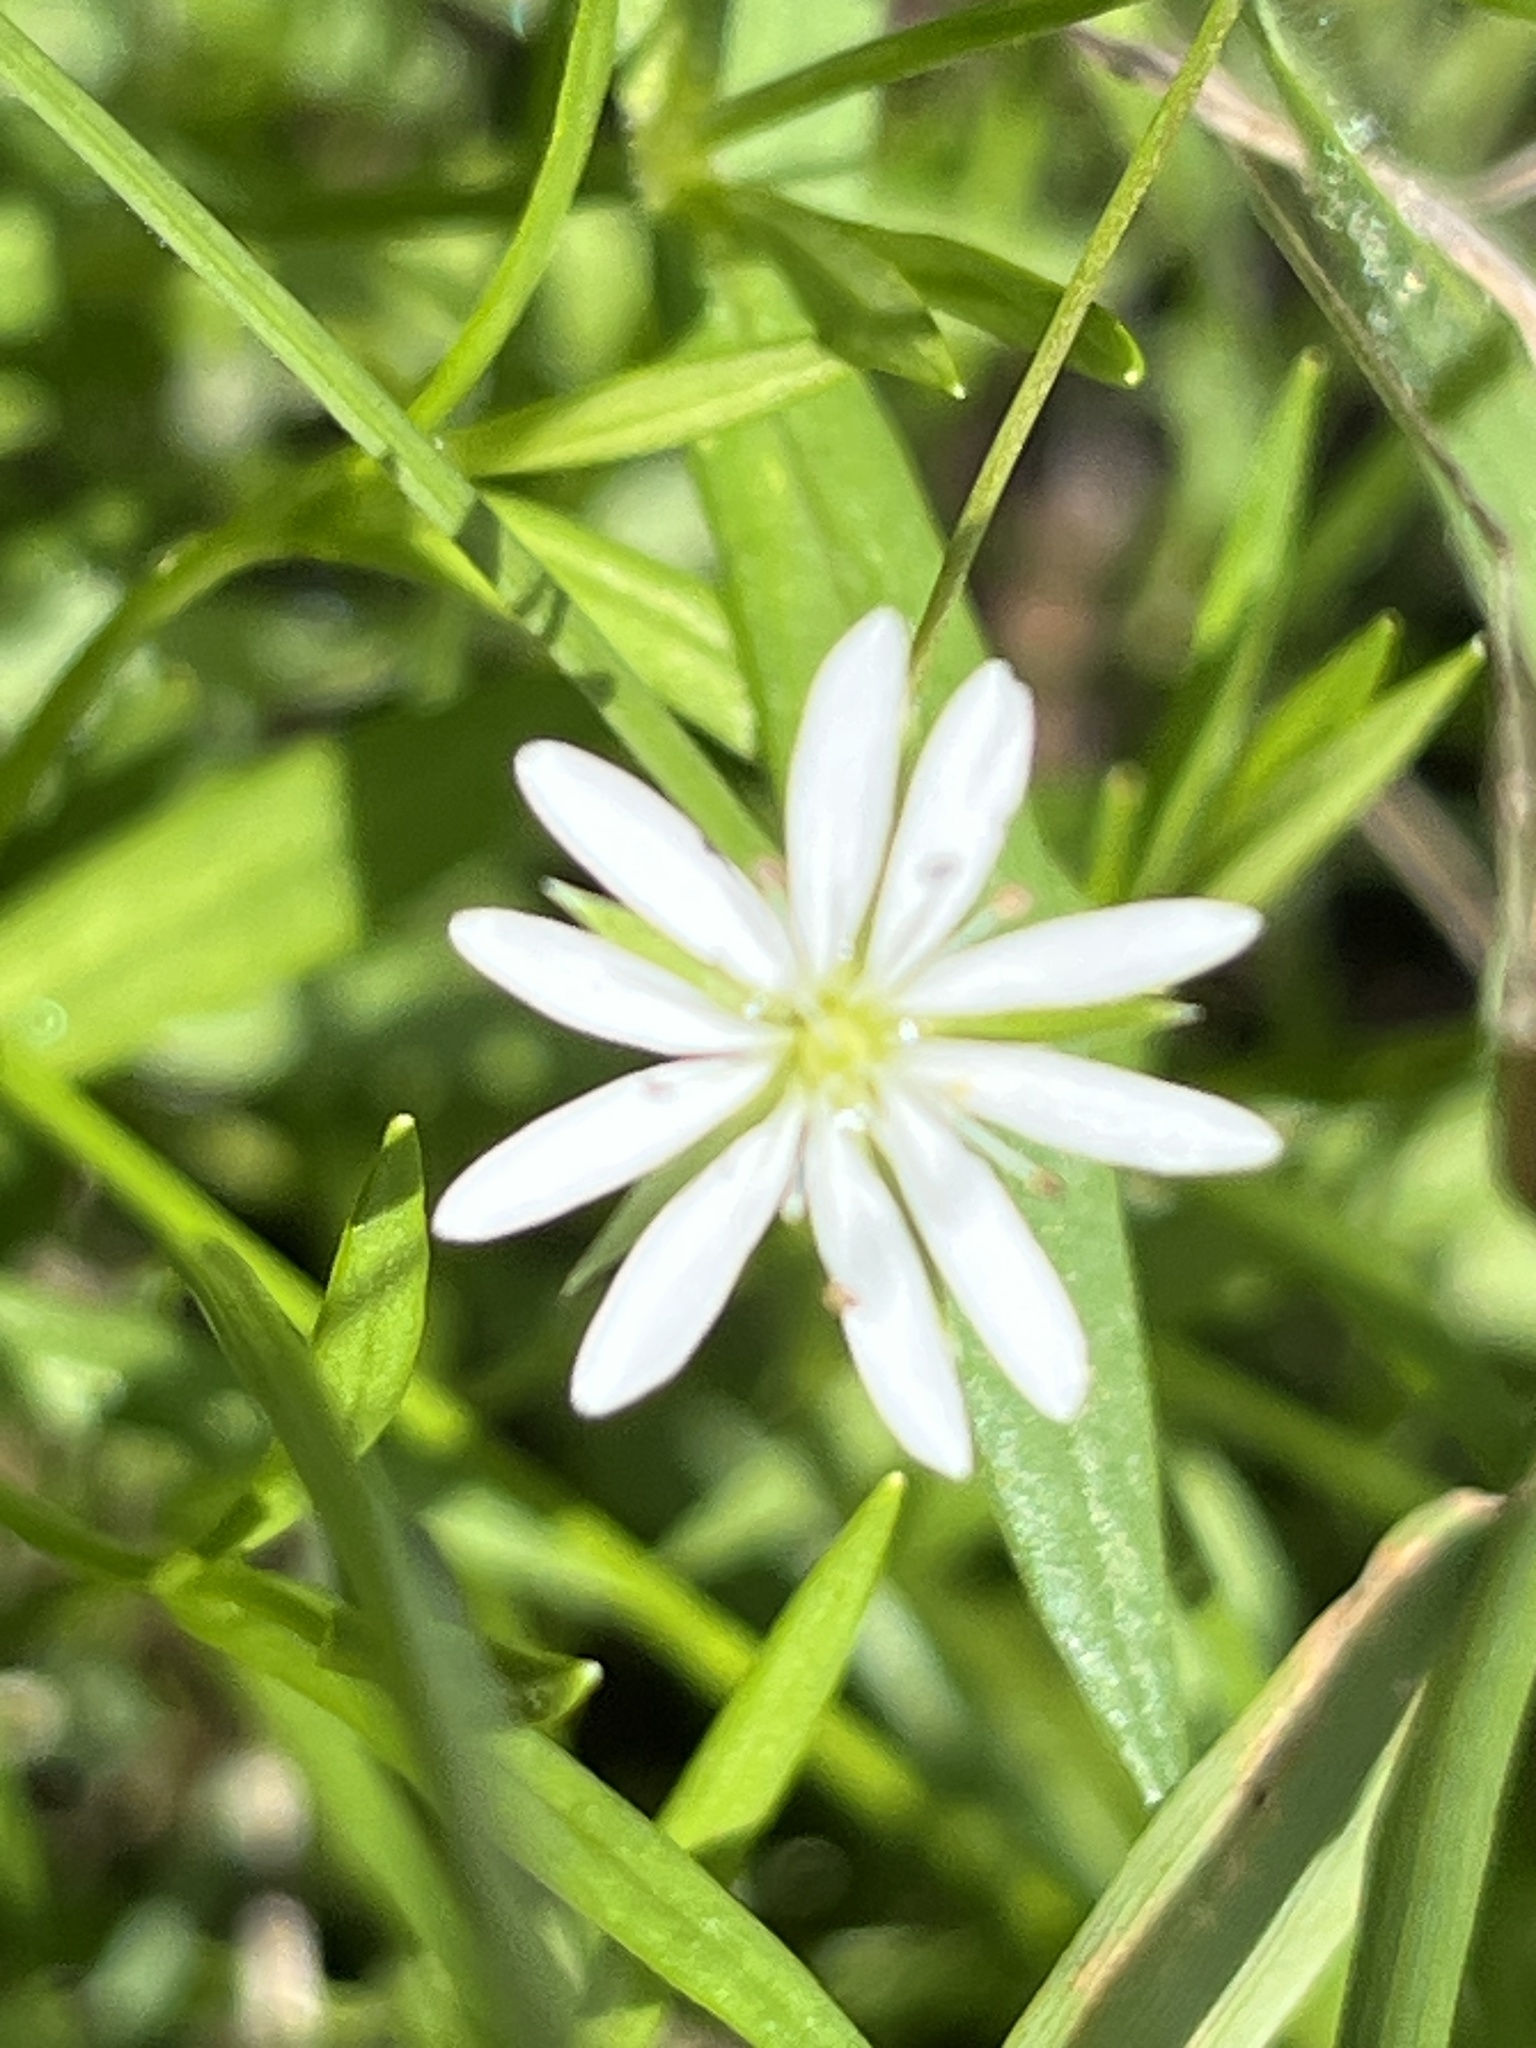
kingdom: Plantae
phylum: Tracheophyta
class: Magnoliopsida
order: Caryophyllales
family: Caryophyllaceae
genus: Stellaria
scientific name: Stellaria graminea
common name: Grass-like starwort
